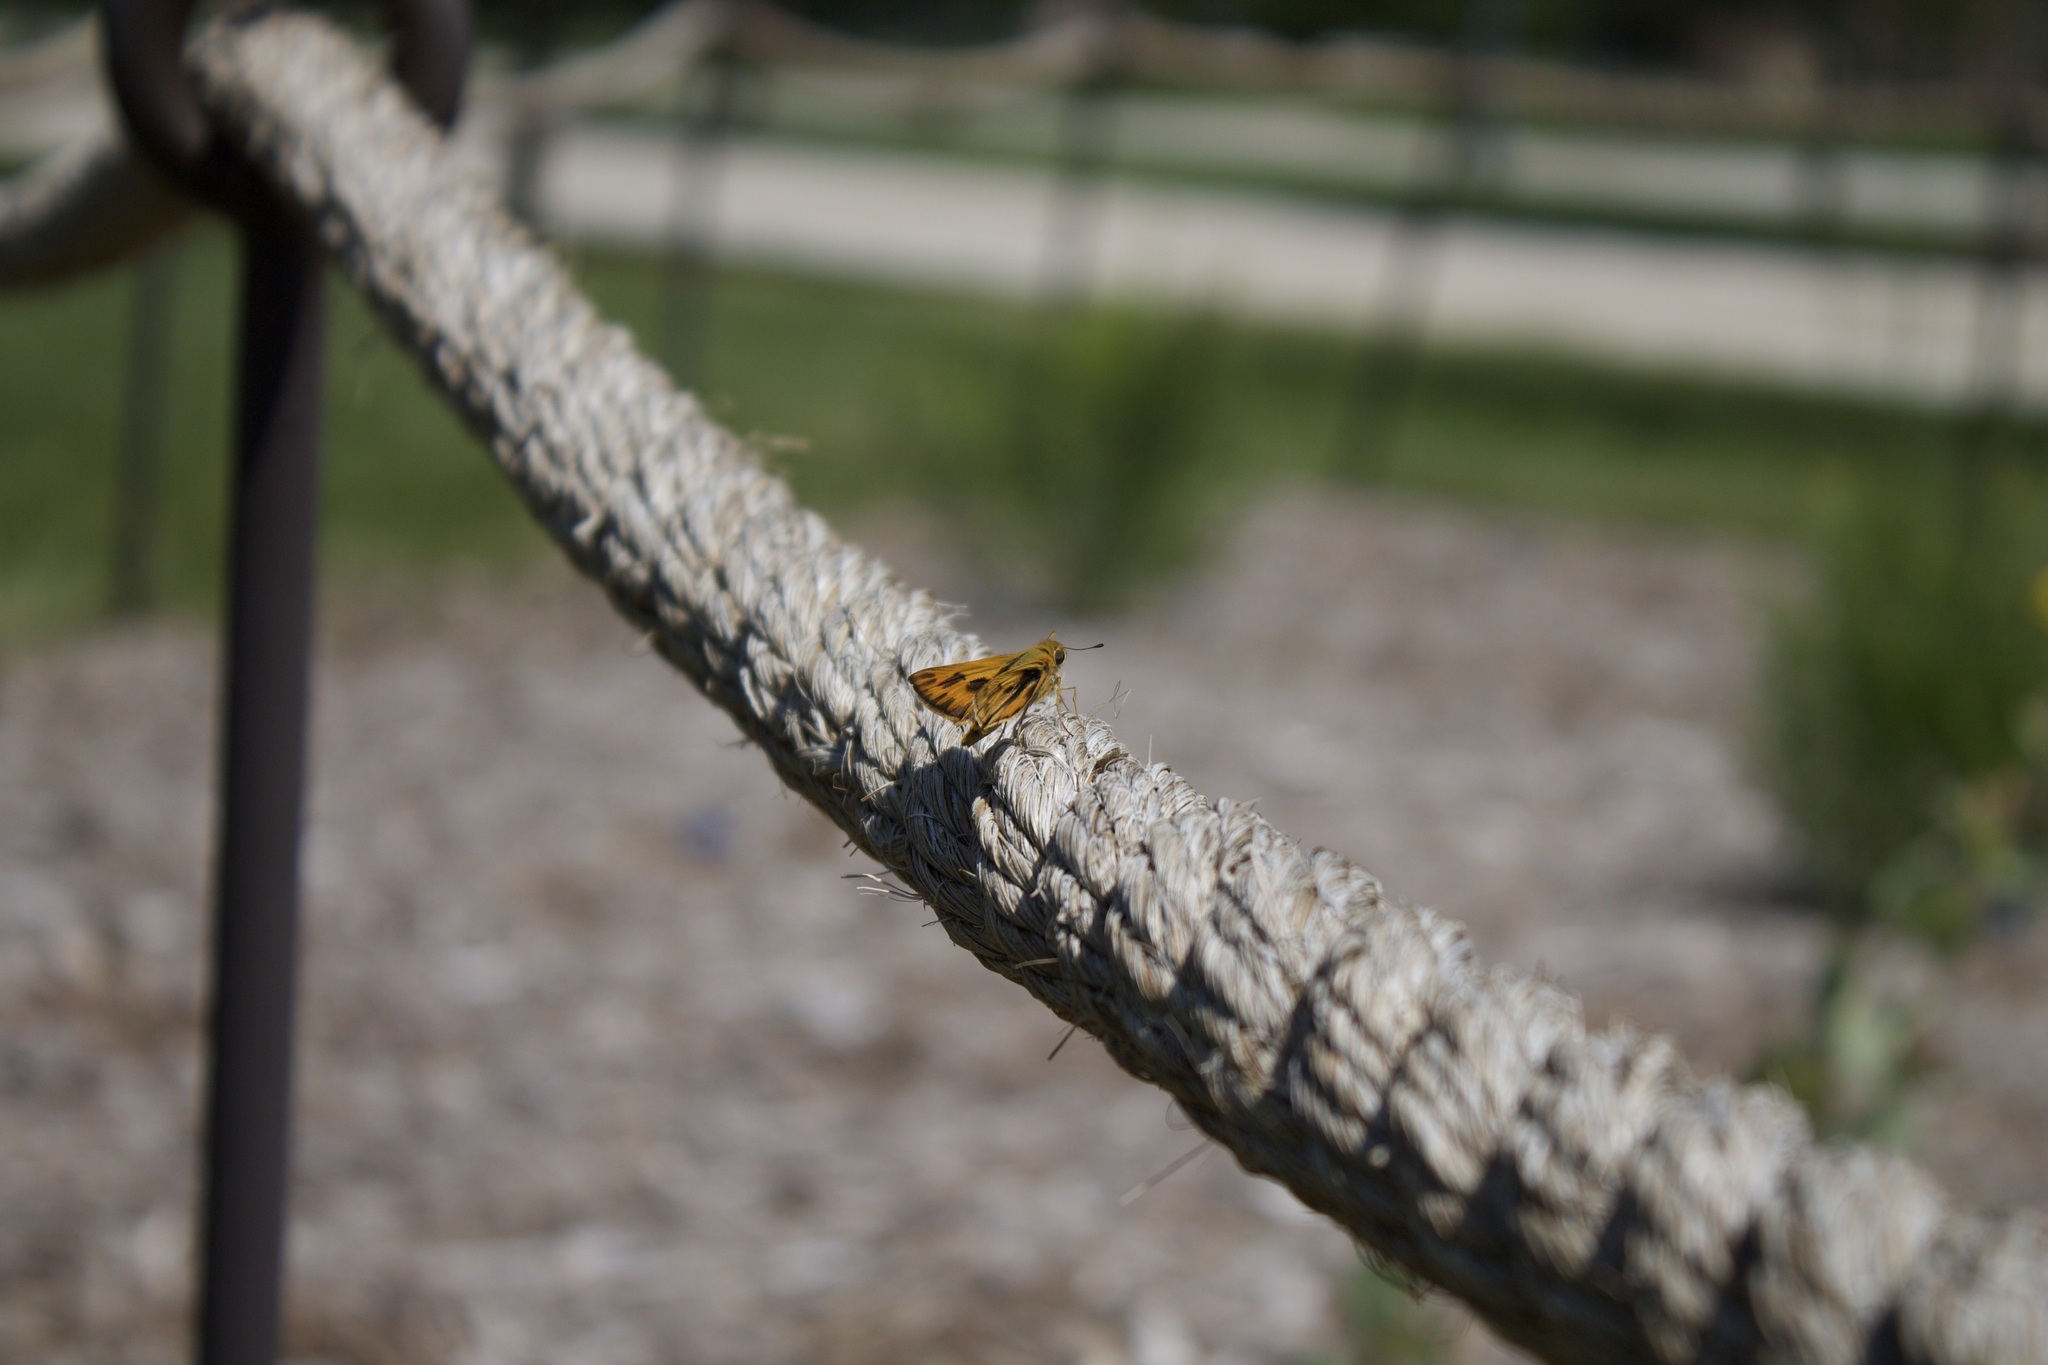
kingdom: Animalia
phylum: Arthropoda
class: Insecta
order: Lepidoptera
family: Hesperiidae
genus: Hylephila
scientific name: Hylephila phyleus
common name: Fiery skipper
